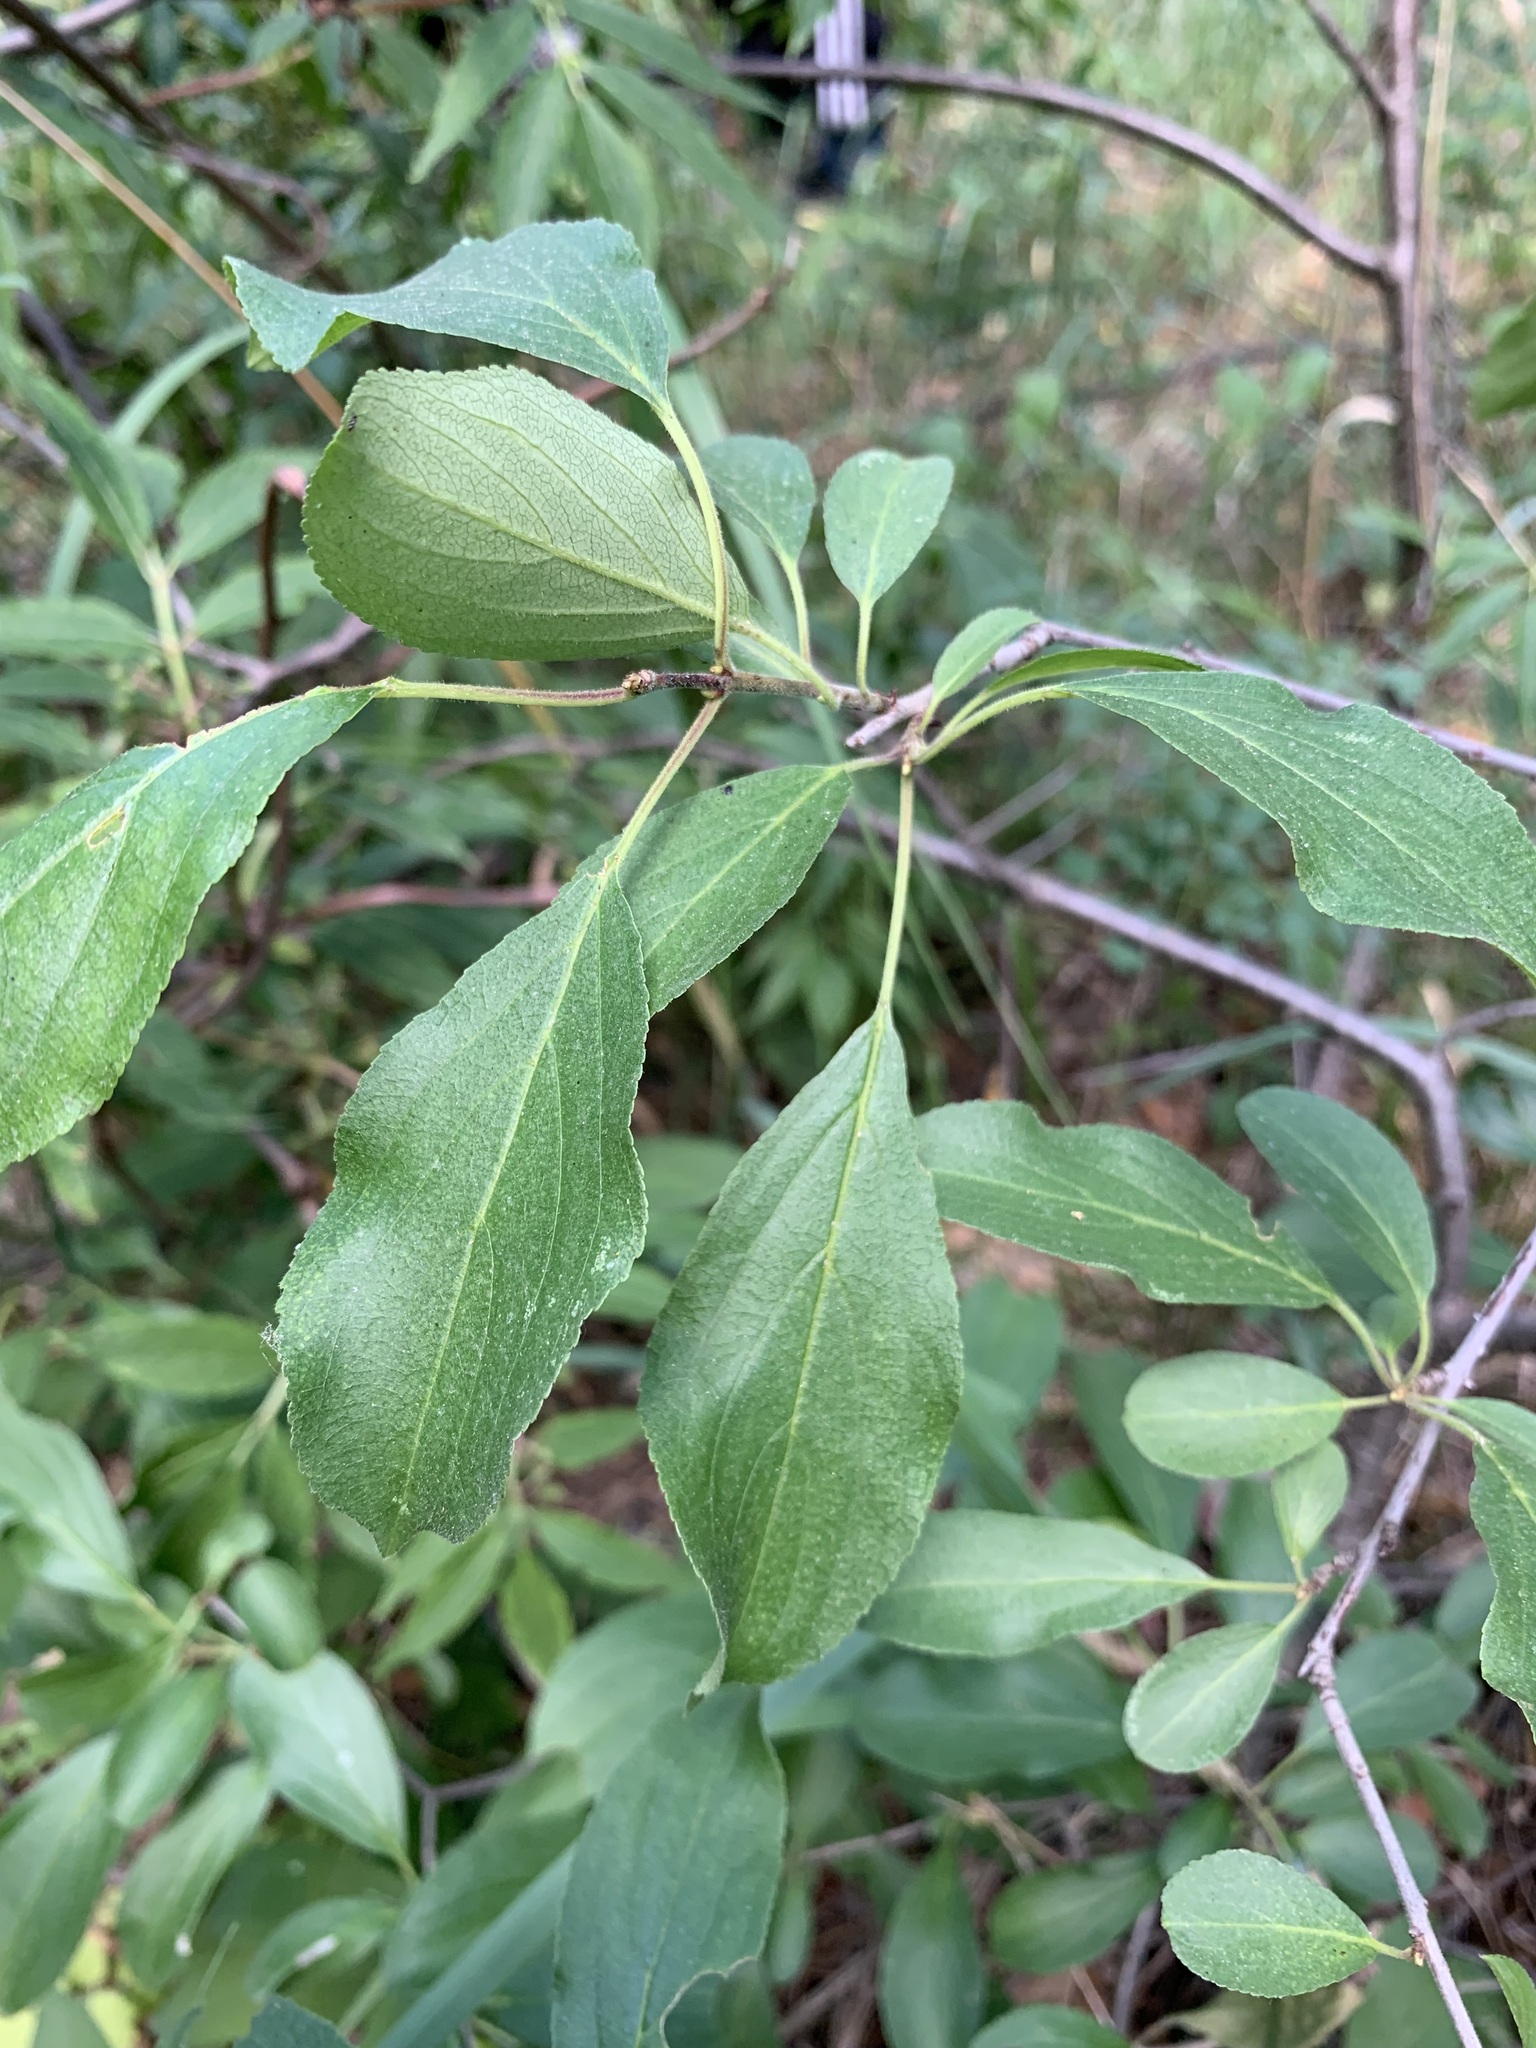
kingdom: Plantae
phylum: Tracheophyta
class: Magnoliopsida
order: Rosales
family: Rhamnaceae
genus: Rhamnus
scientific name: Rhamnus cathartica
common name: Common buckthorn
